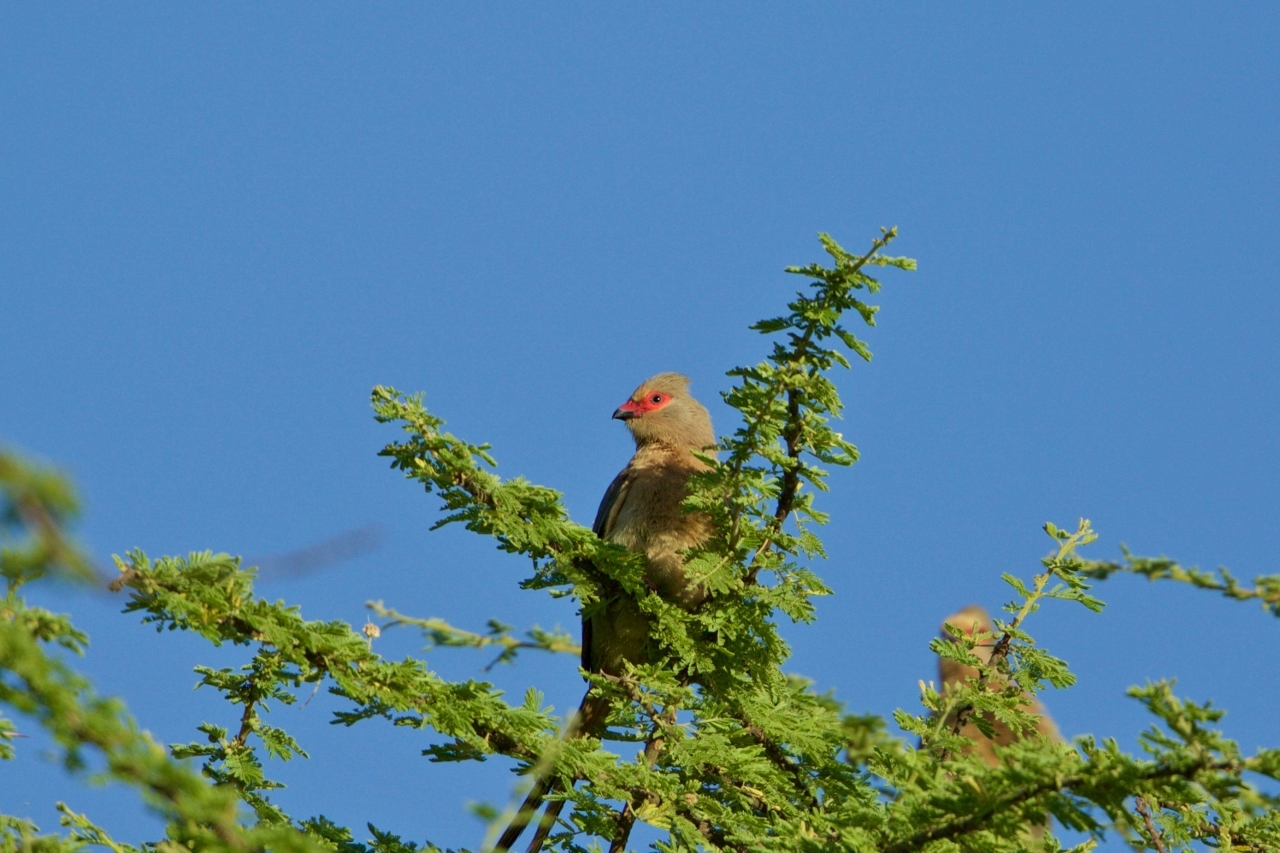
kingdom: Animalia
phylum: Chordata
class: Aves
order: Coliiformes
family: Coliidae
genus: Urocolius
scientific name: Urocolius indicus
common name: Red-faced mousebird
